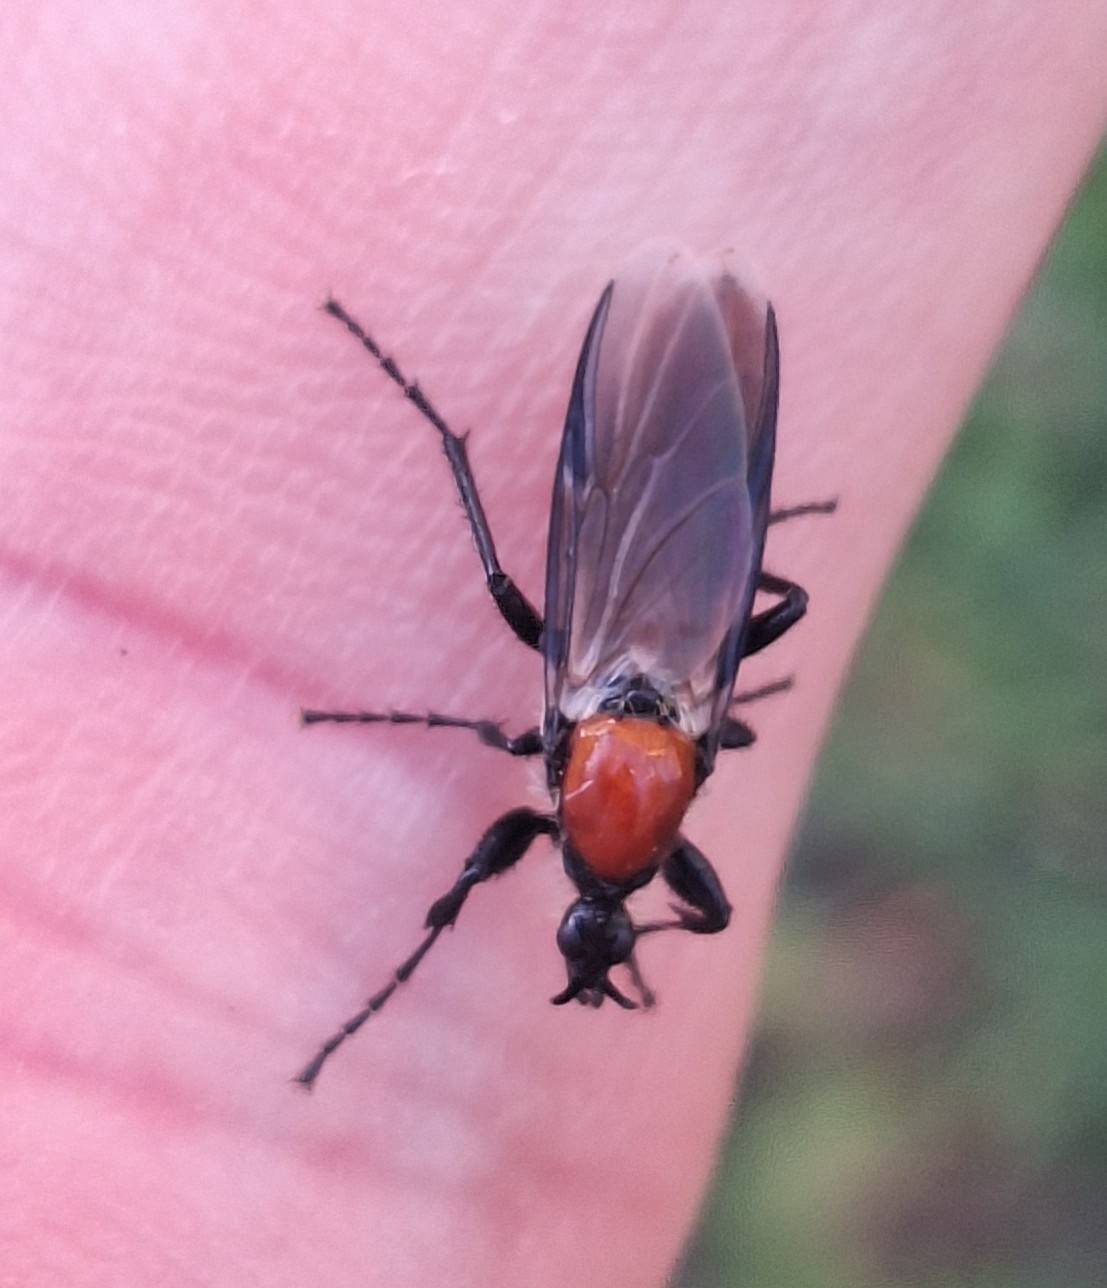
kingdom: Animalia
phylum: Arthropoda
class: Insecta
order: Diptera
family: Bibionidae
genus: Bibio
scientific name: Bibio hortulanus
